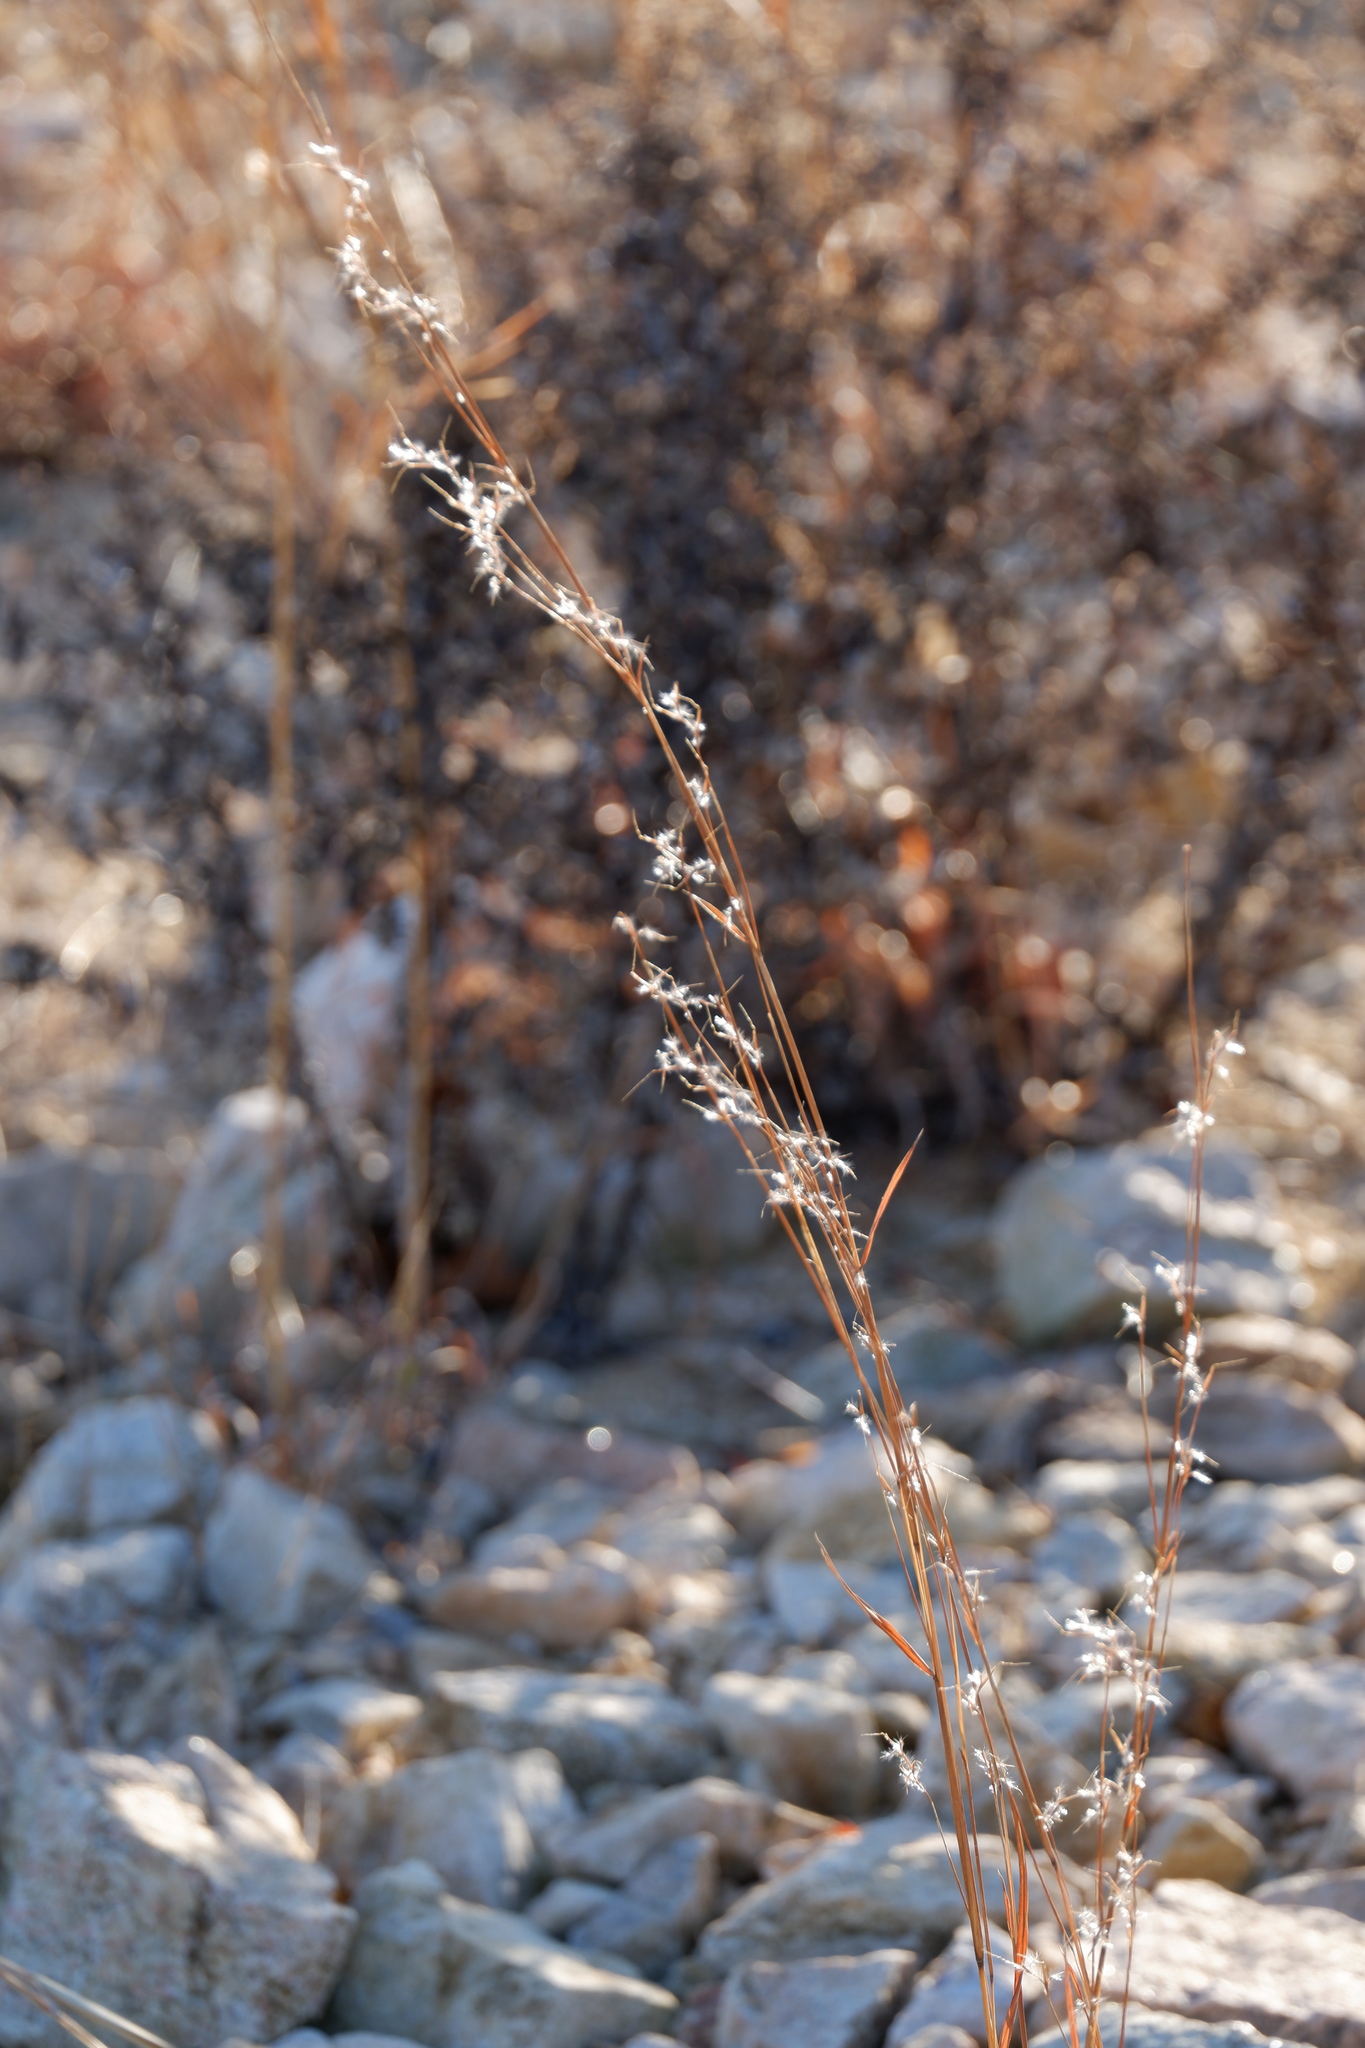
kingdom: Plantae
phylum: Tracheophyta
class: Liliopsida
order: Poales
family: Poaceae
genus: Schizachyrium
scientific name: Schizachyrium scoparium
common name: Little bluestem
